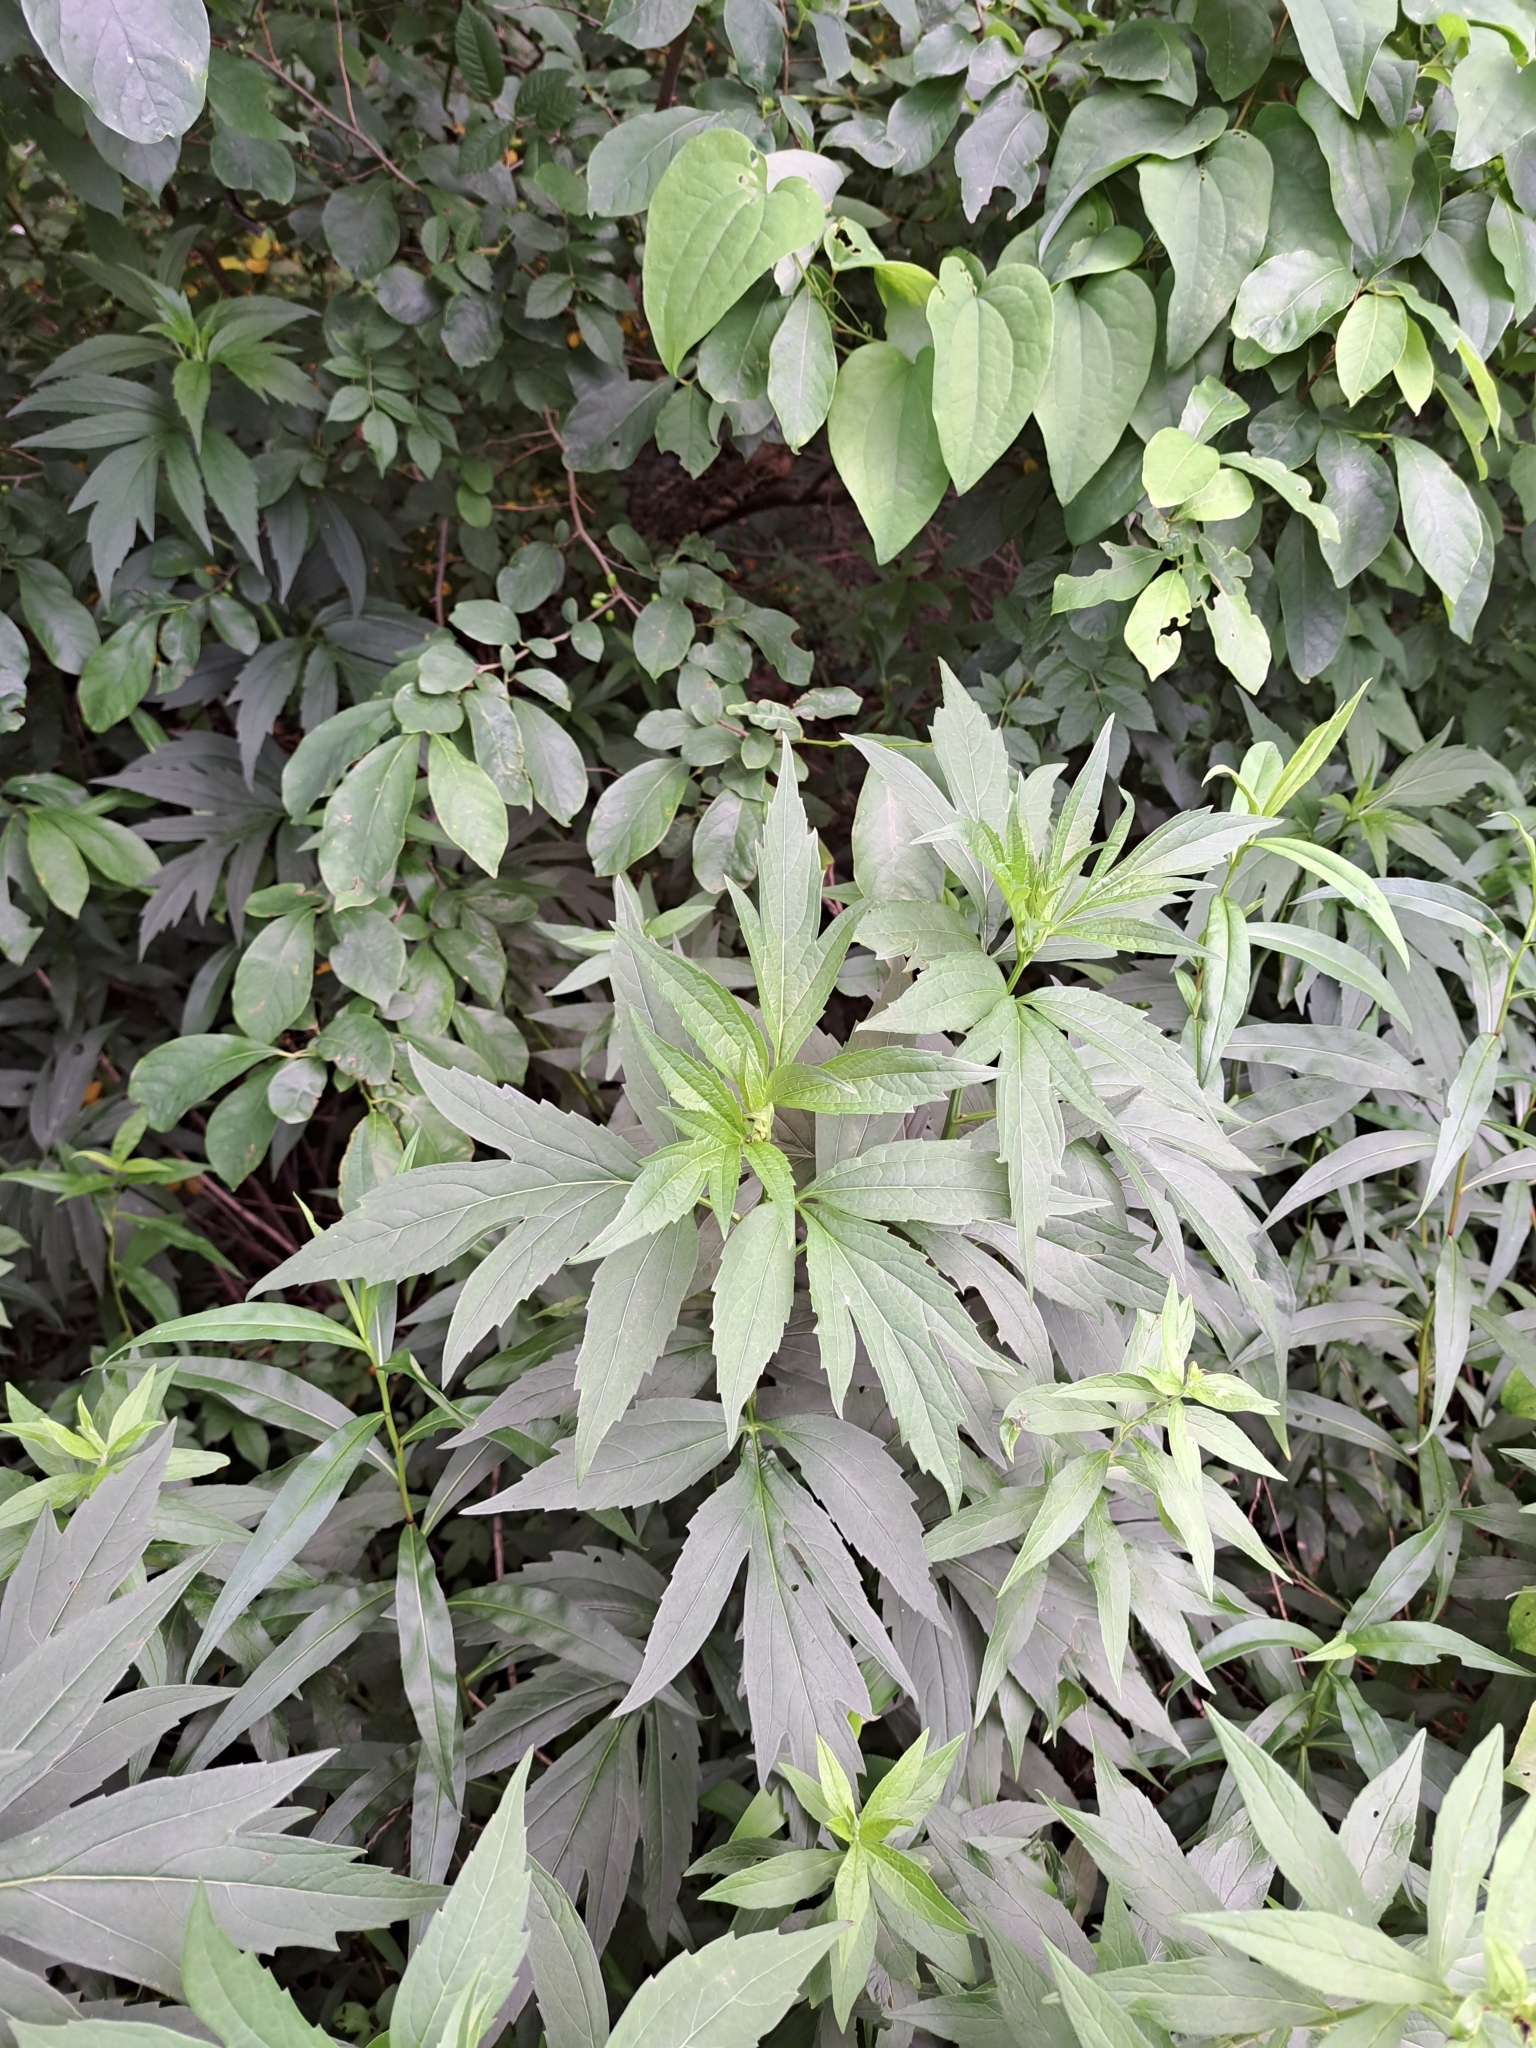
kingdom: Plantae
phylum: Tracheophyta
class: Magnoliopsida
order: Asterales
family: Asteraceae
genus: Rudbeckia
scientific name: Rudbeckia laciniata
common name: Coneflower
